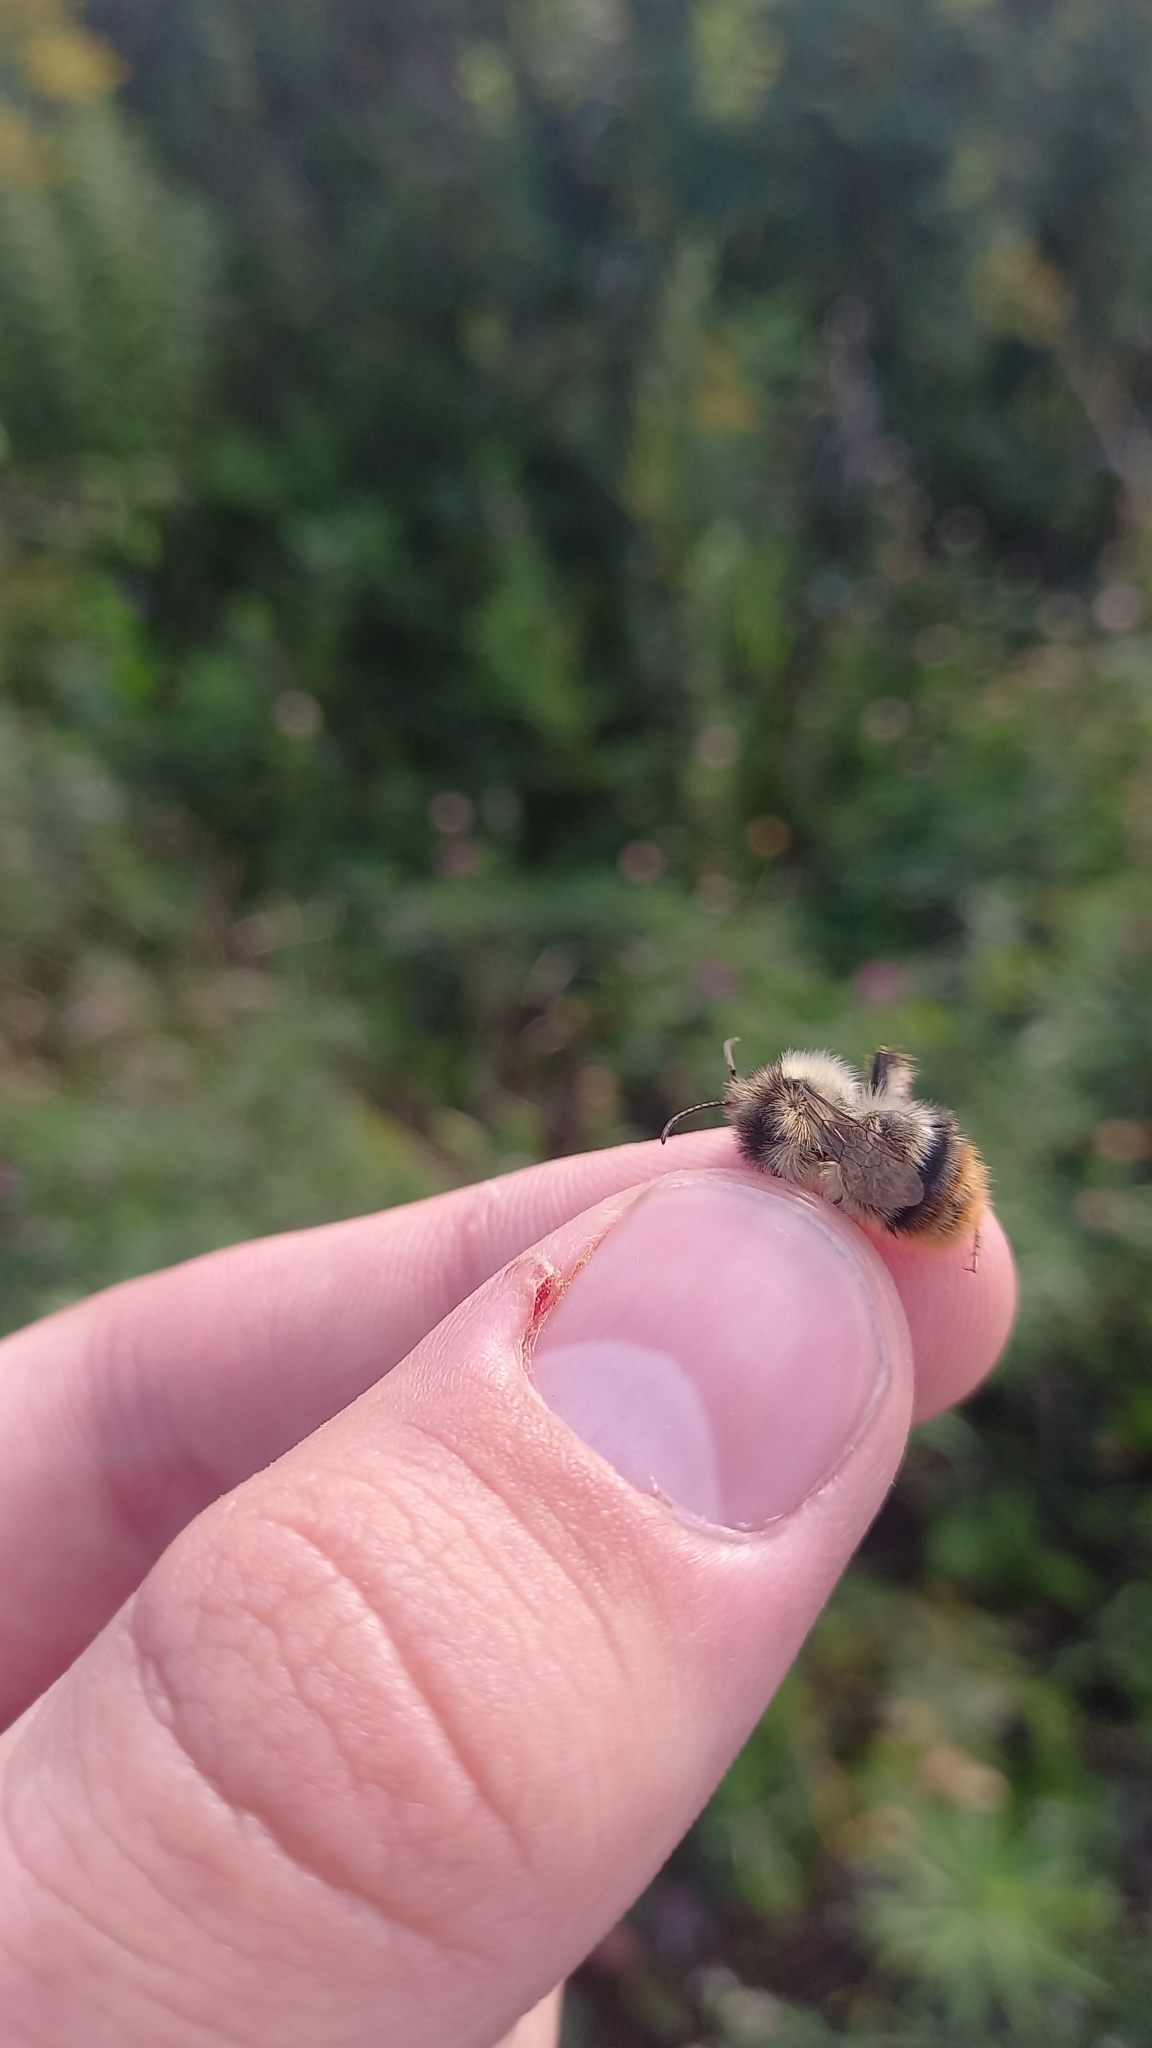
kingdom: Animalia
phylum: Arthropoda
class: Insecta
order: Hymenoptera
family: Apidae
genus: Bombus
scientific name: Bombus sylvarum
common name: Shrill carder bee
